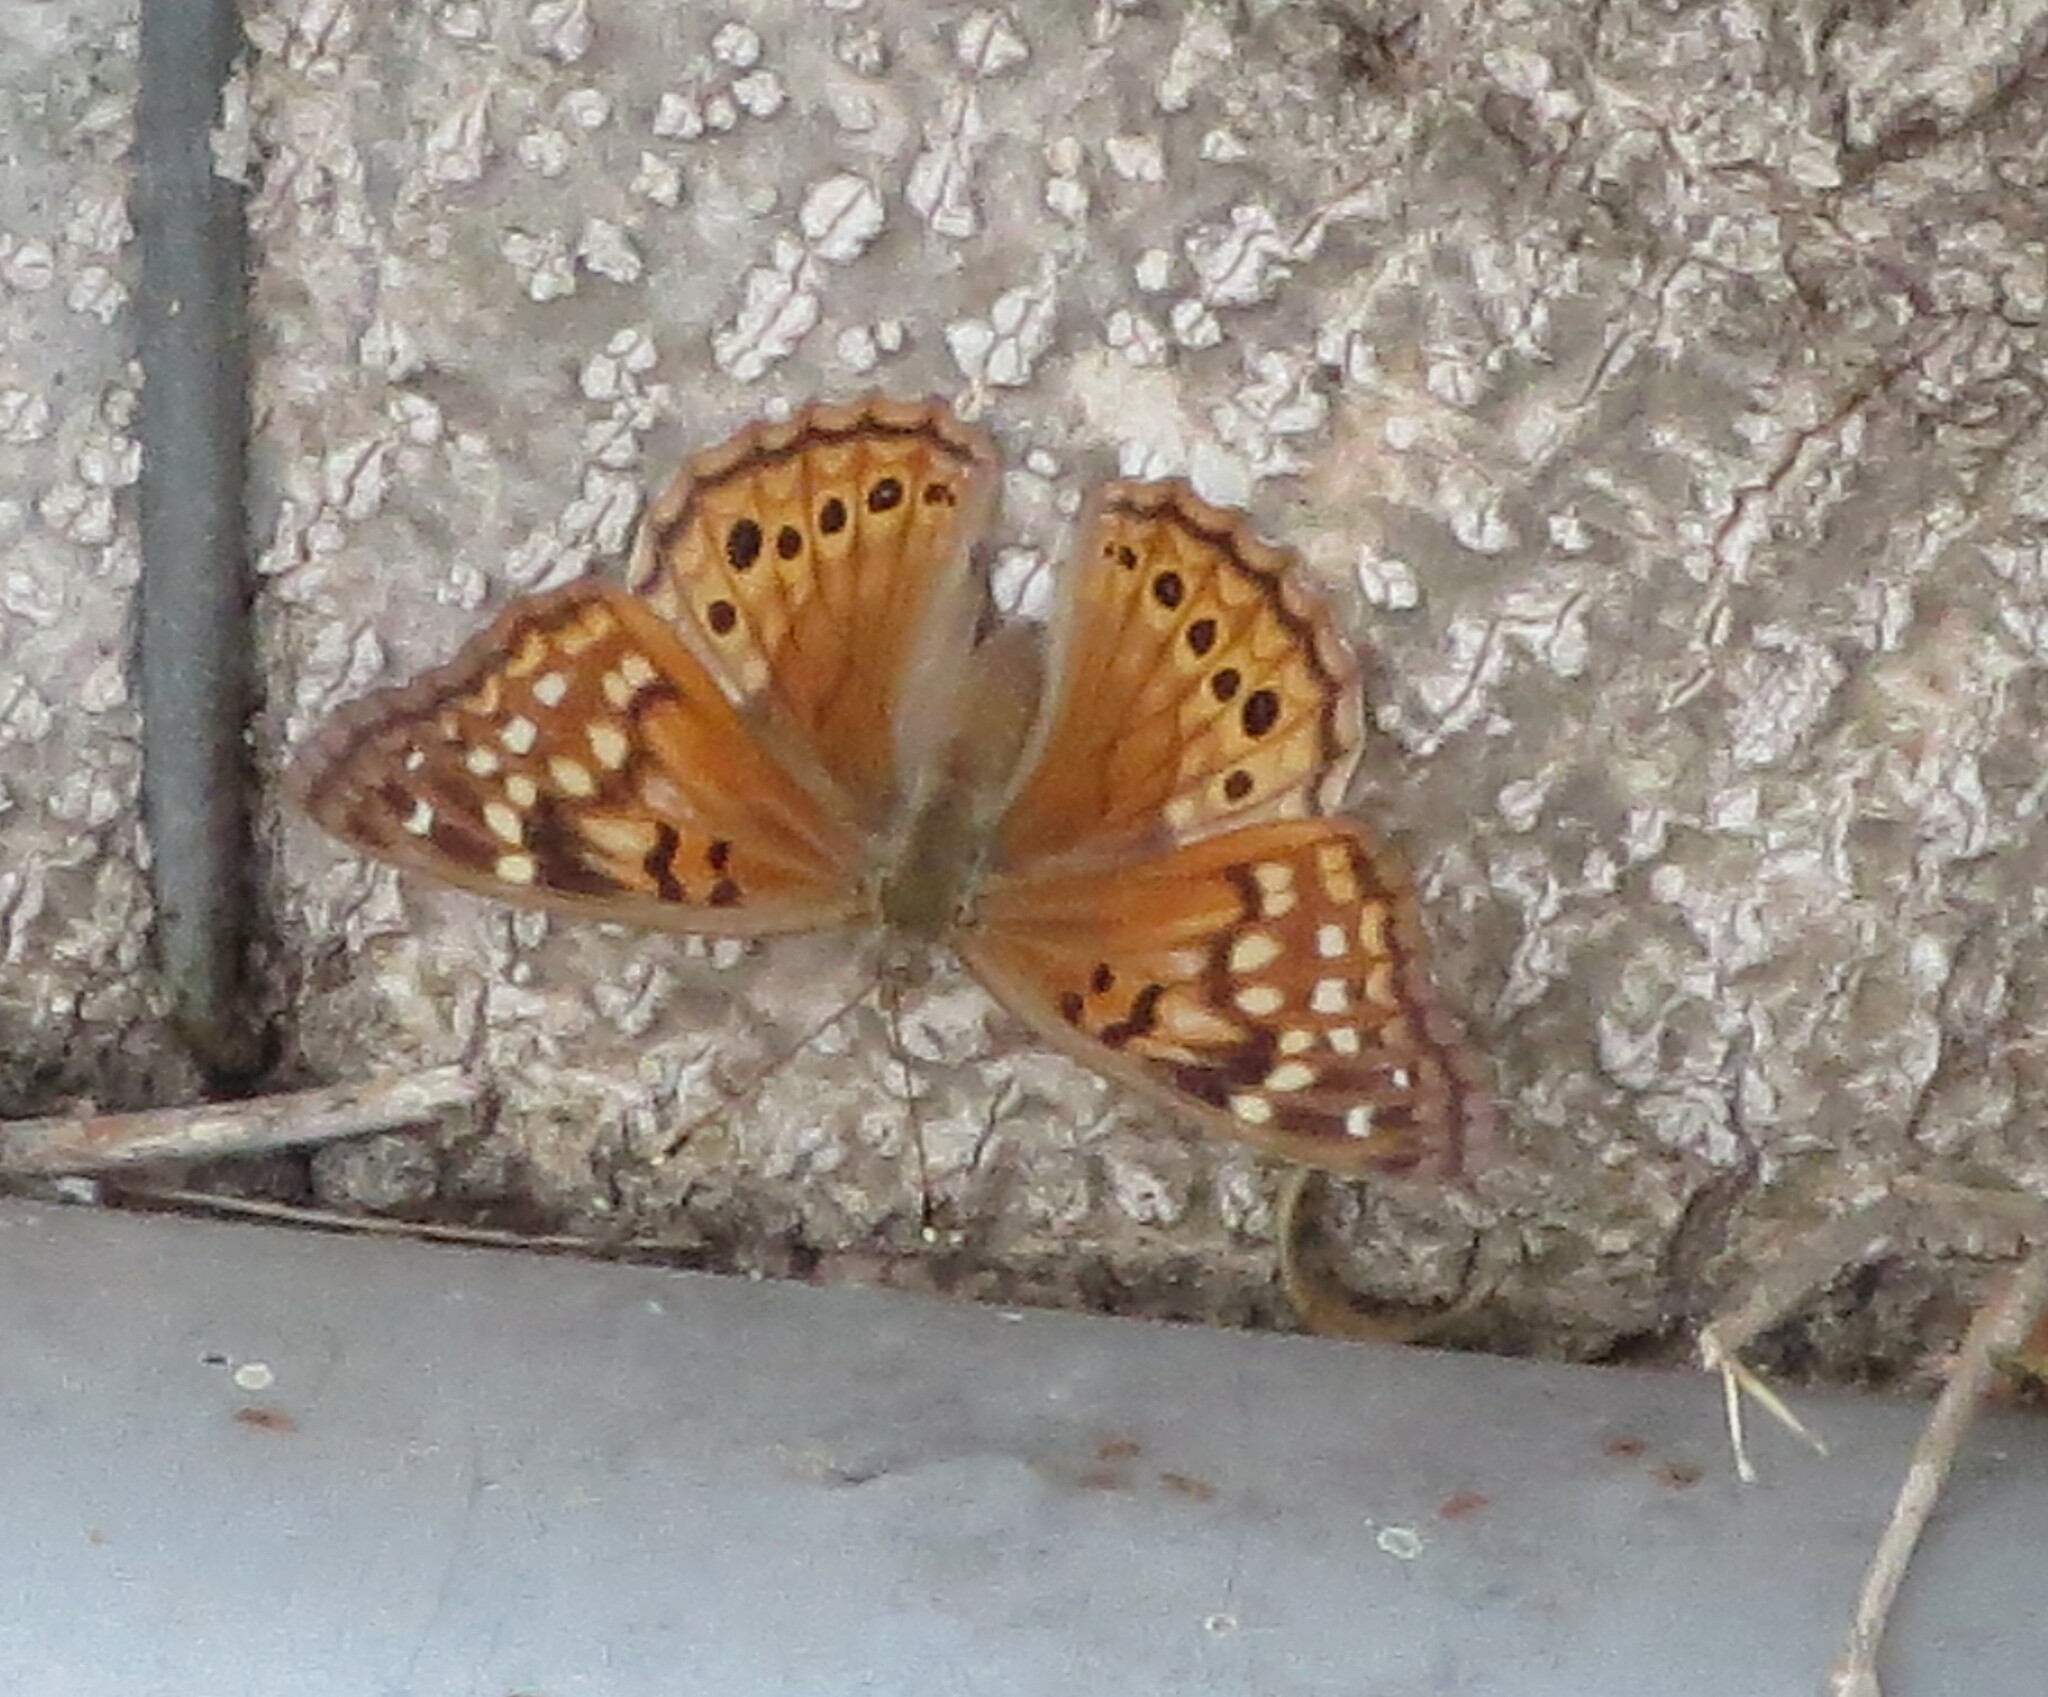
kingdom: Animalia
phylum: Arthropoda
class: Insecta
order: Lepidoptera
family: Nymphalidae
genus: Asterocampa
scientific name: Asterocampa clyton
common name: Tawny emperor
